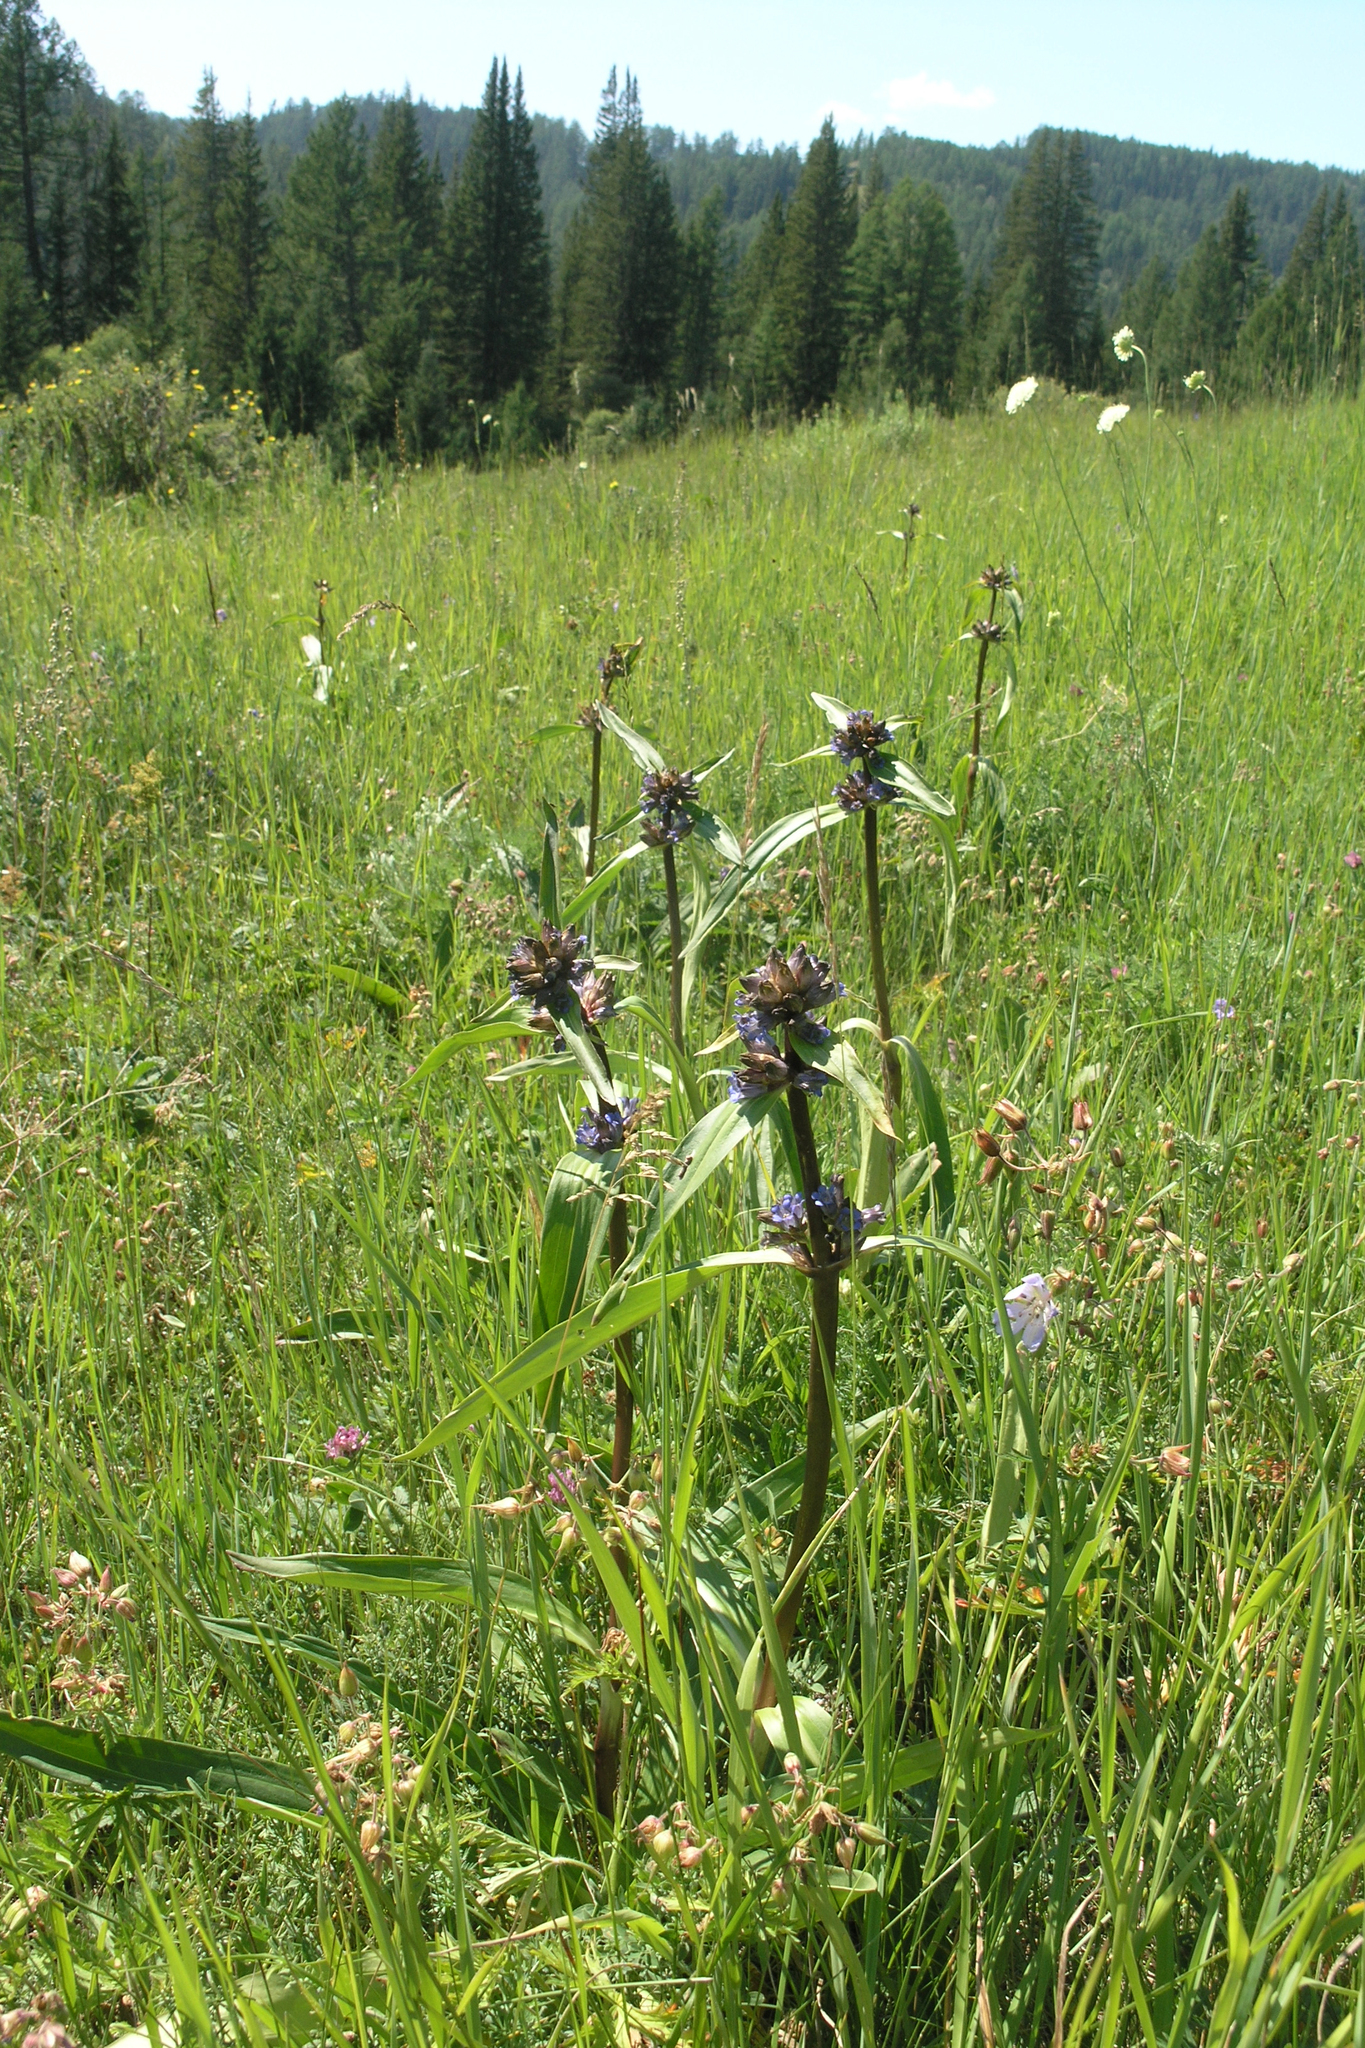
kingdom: Plantae
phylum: Tracheophyta
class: Magnoliopsida
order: Gentianales
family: Gentianaceae
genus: Gentiana
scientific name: Gentiana macrophylla
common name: Large-leaf gentian
